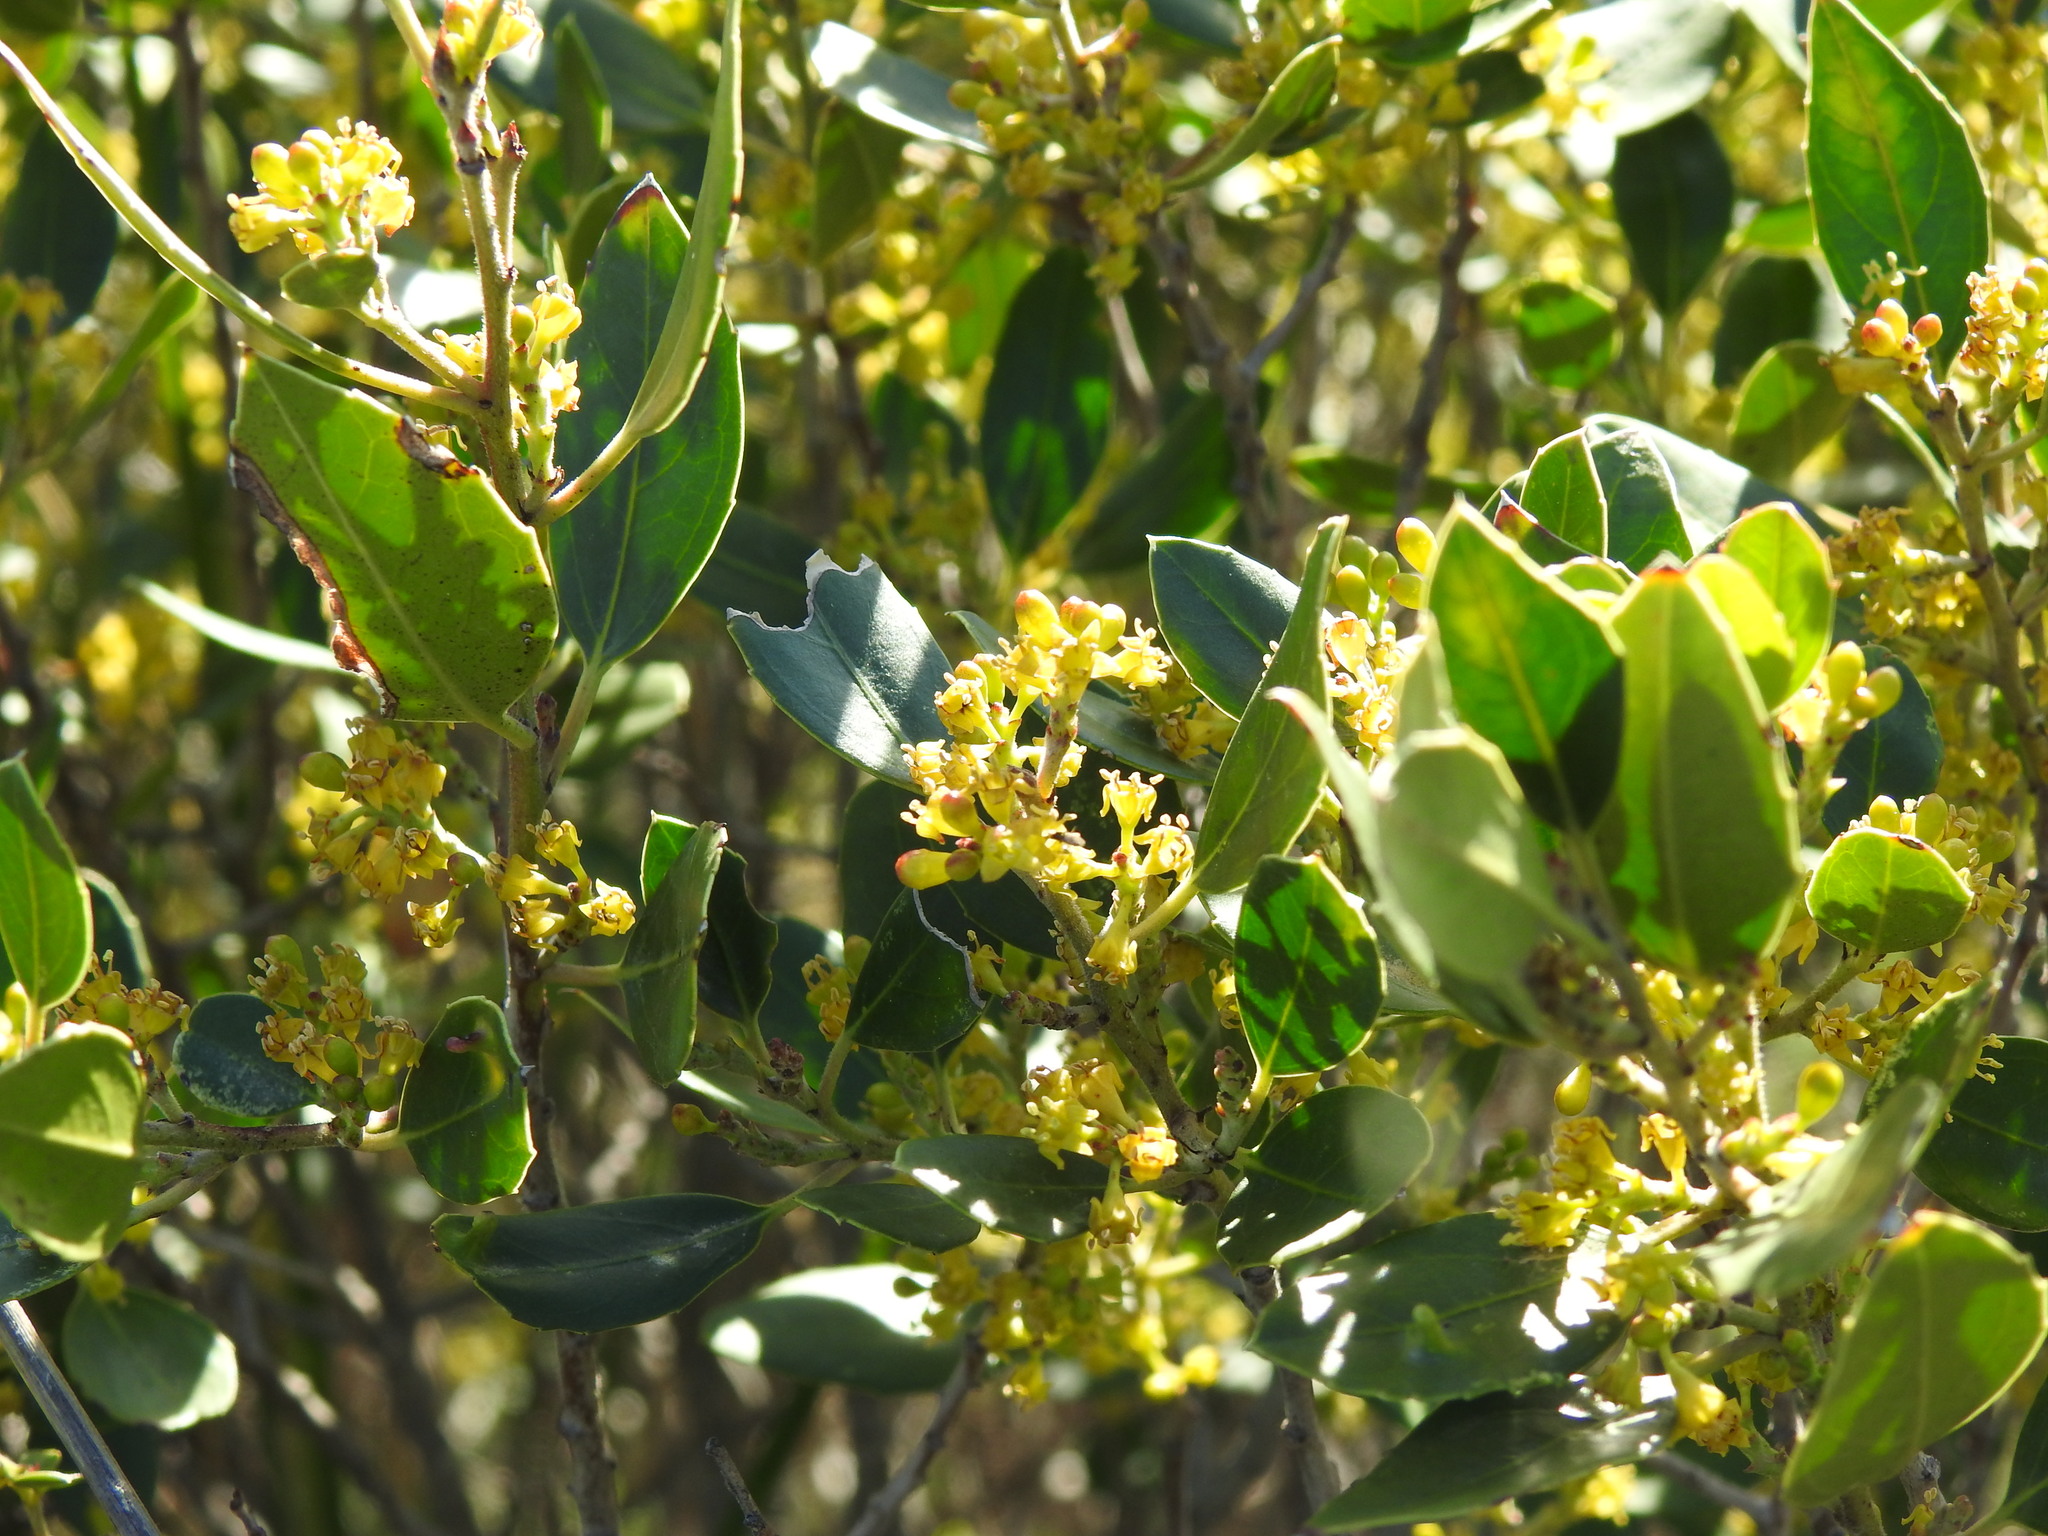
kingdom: Plantae
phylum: Tracheophyta
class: Magnoliopsida
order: Rosales
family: Rhamnaceae
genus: Rhamnus
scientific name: Rhamnus alaternus
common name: Mediterranean buckthorn
